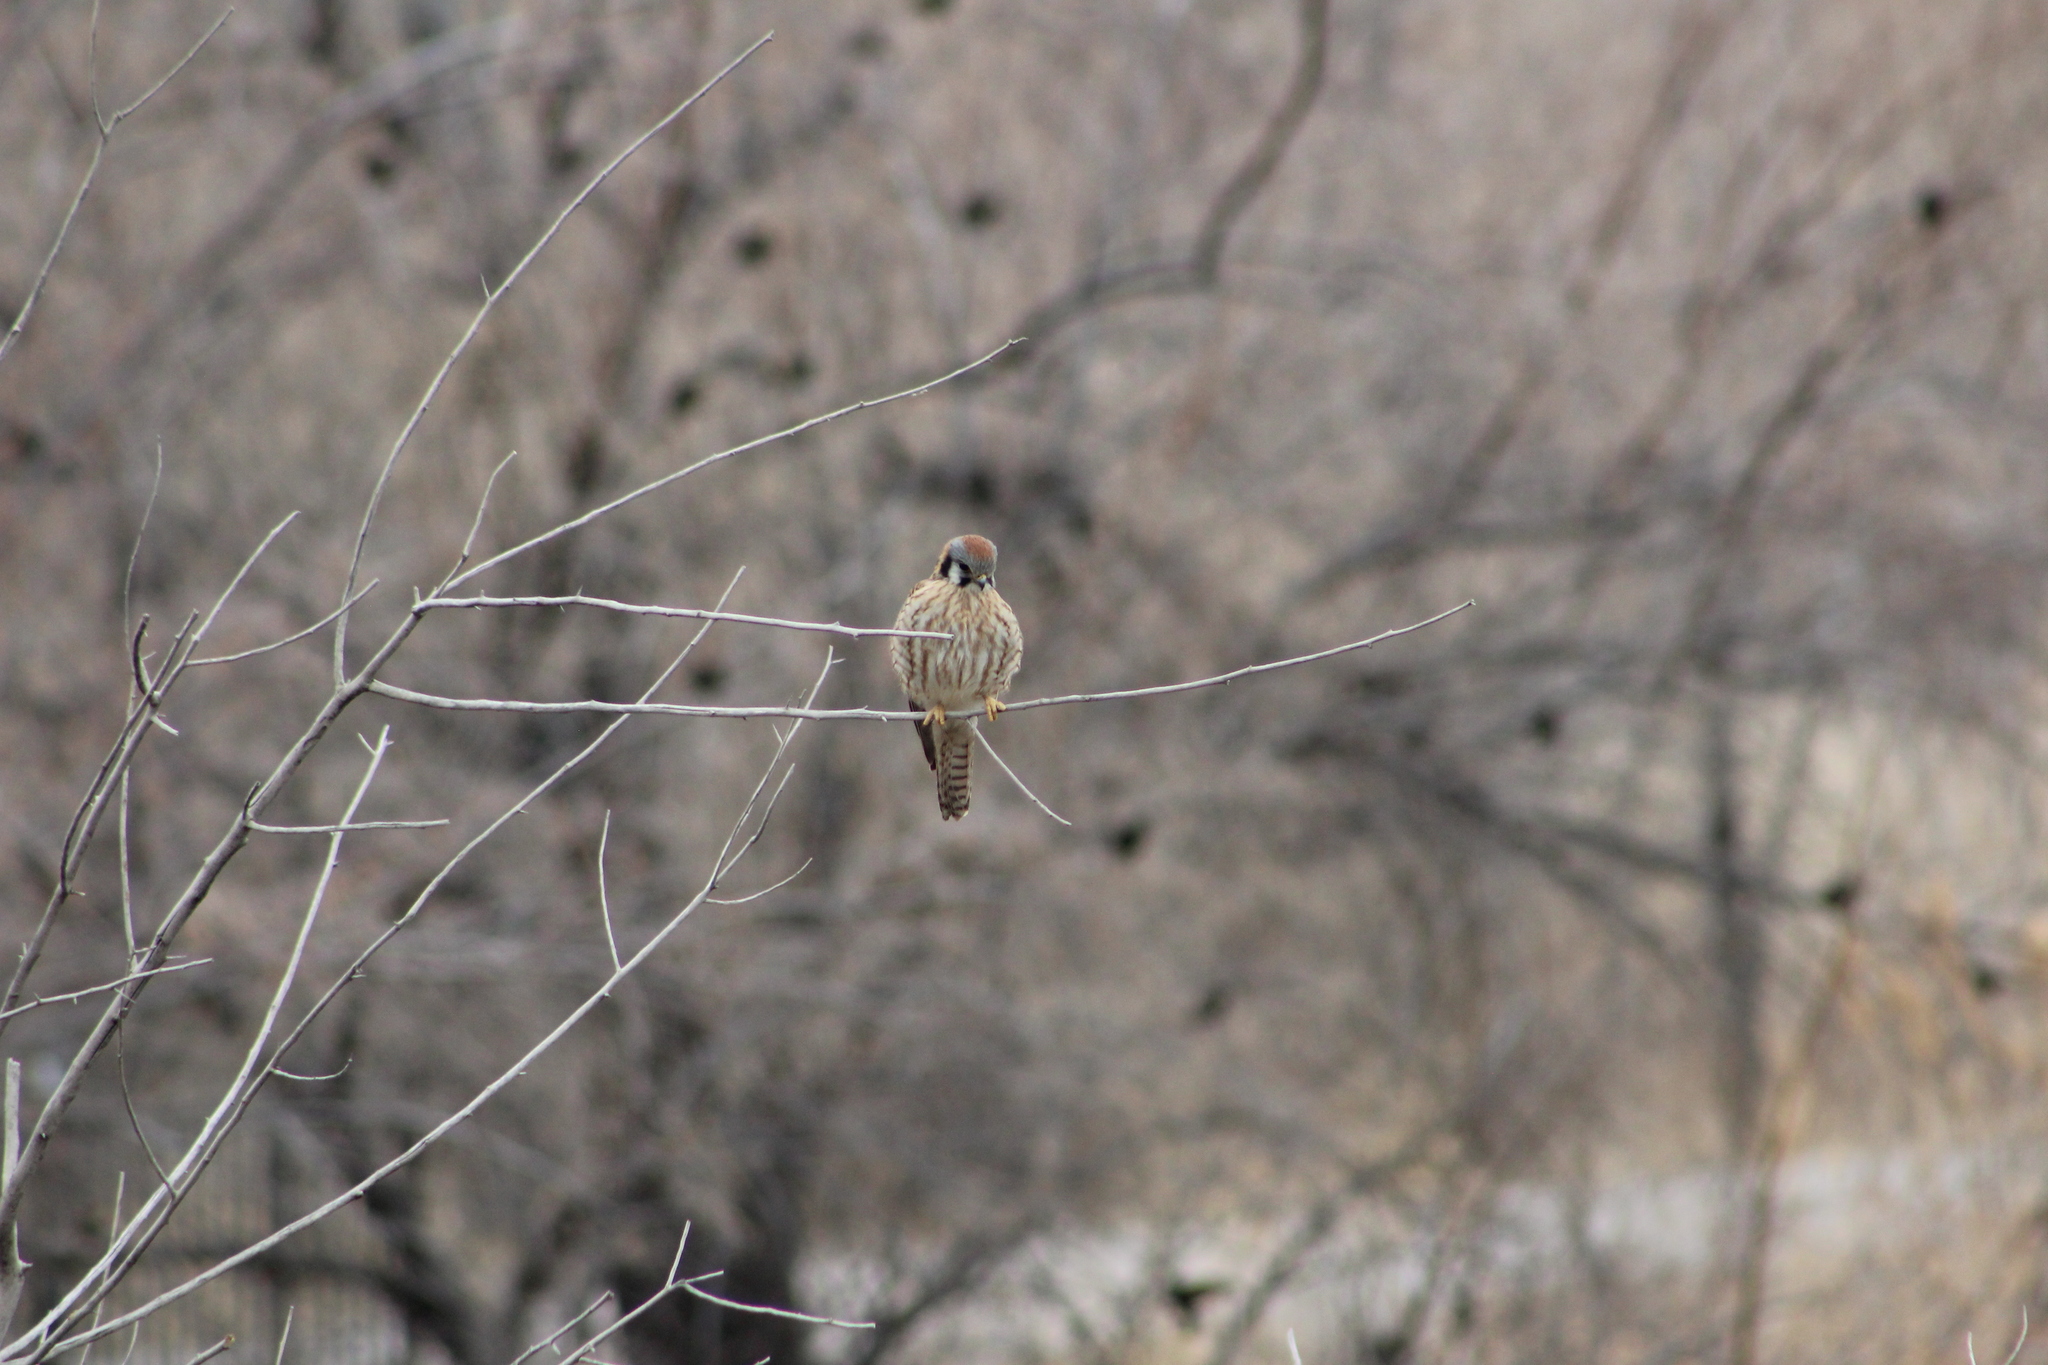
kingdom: Animalia
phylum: Chordata
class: Aves
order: Falconiformes
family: Falconidae
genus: Falco
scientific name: Falco sparverius
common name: American kestrel
